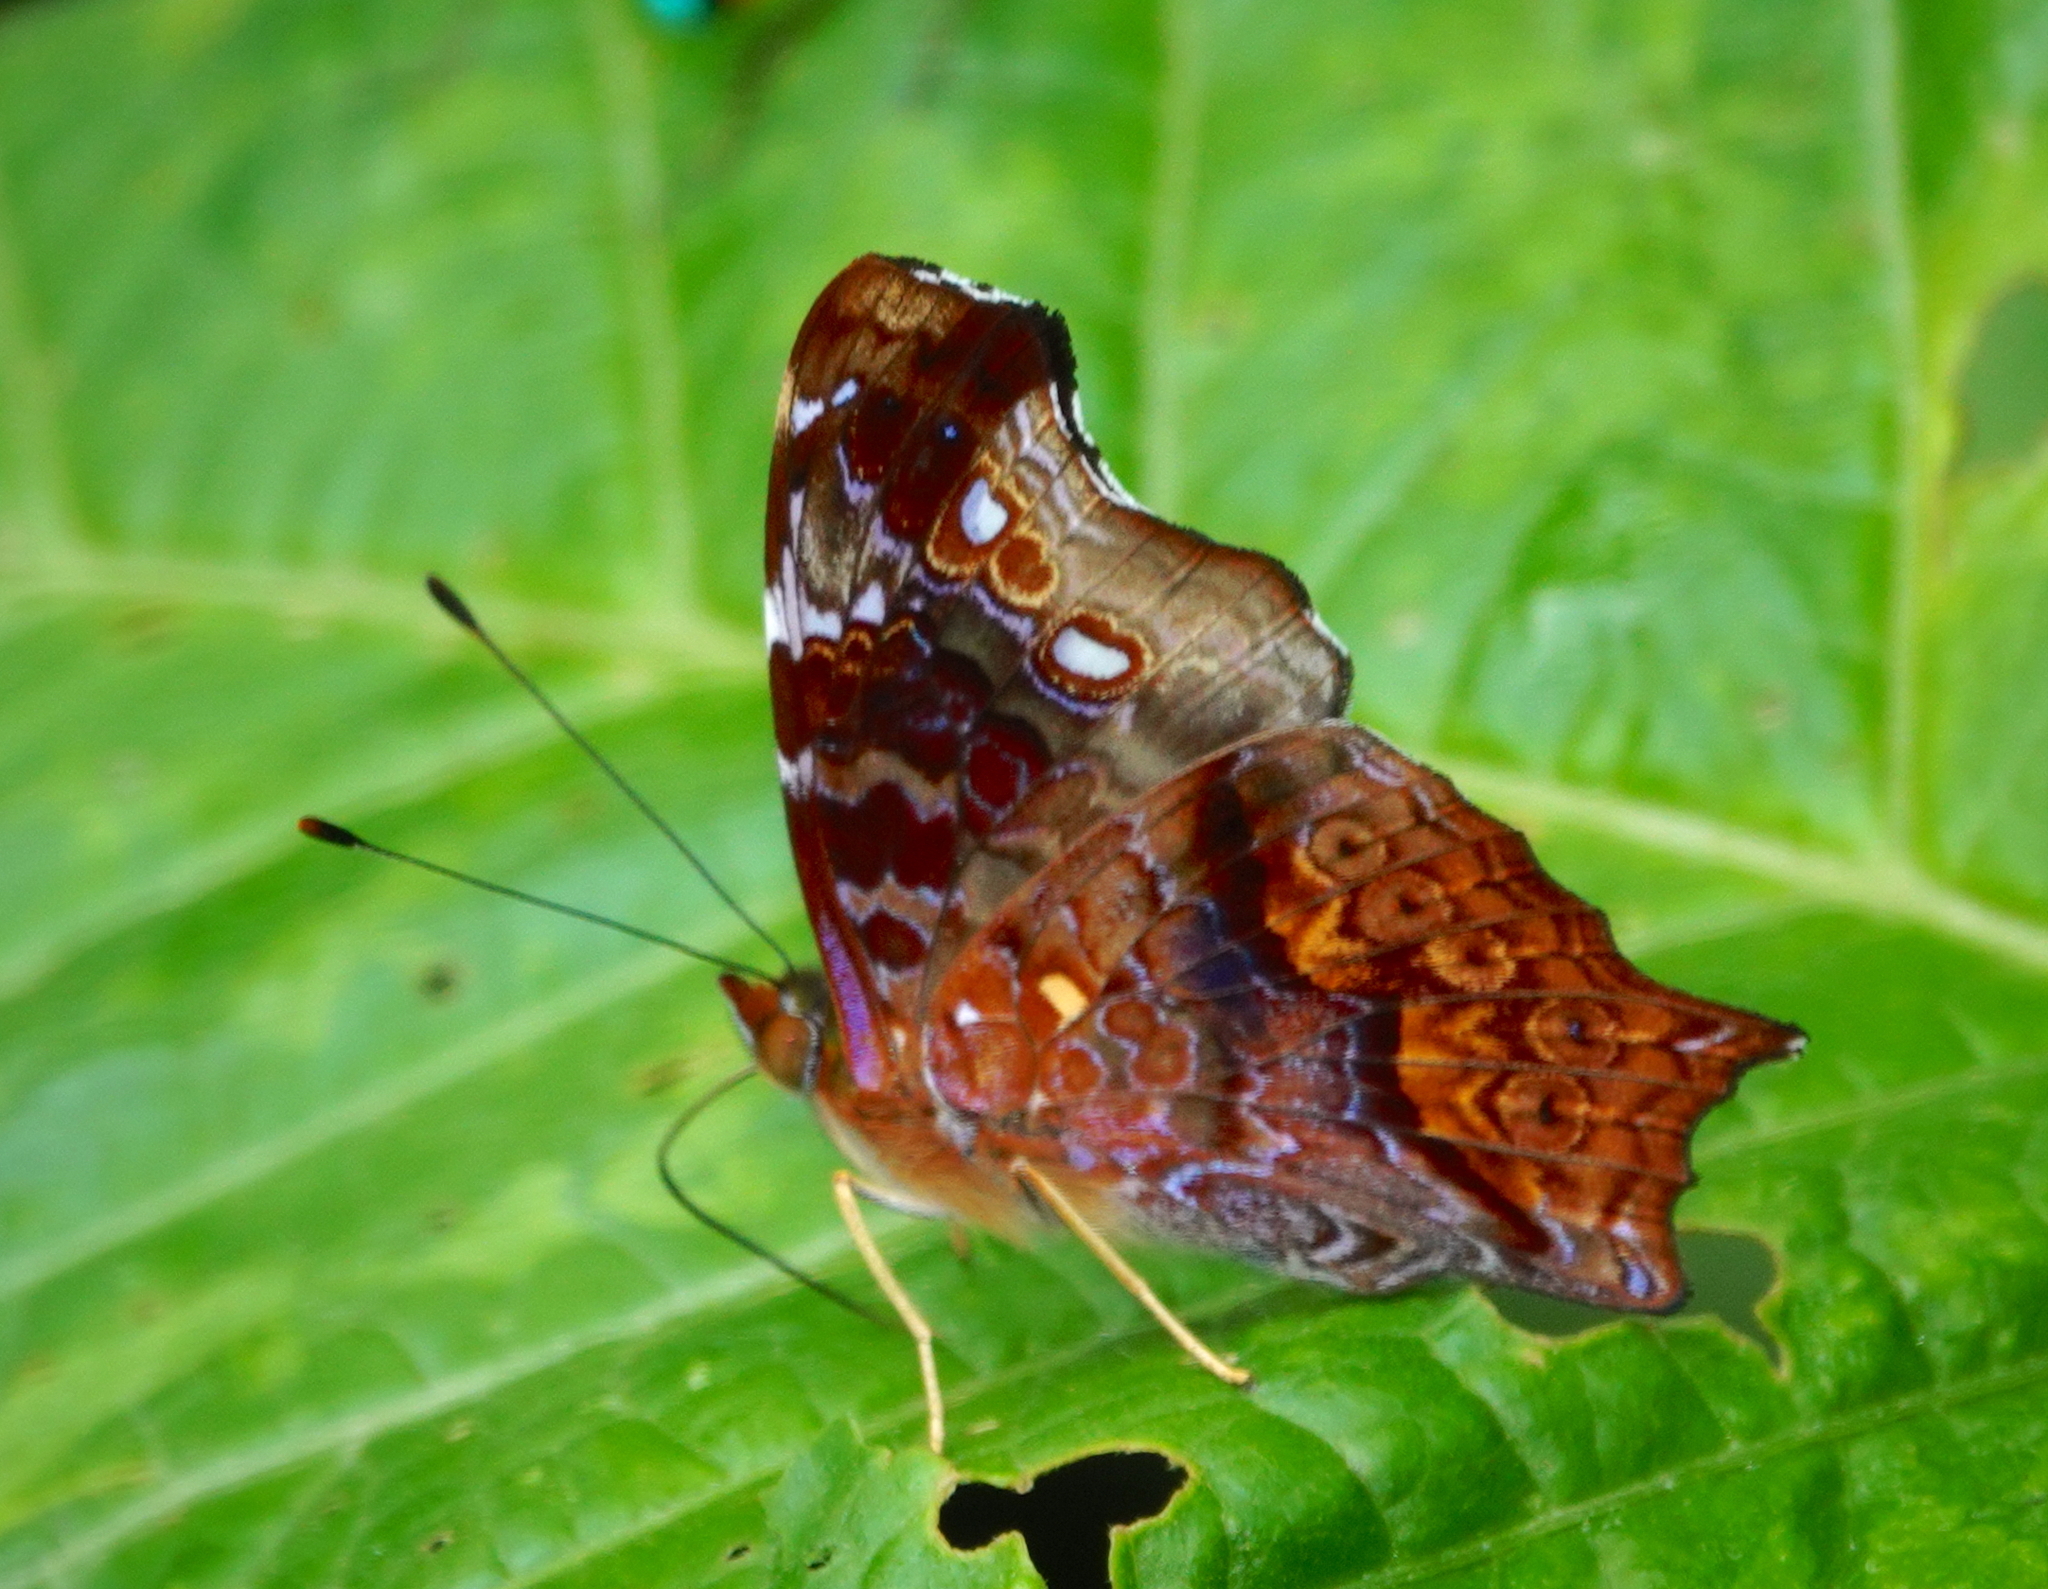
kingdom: Animalia
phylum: Arthropoda
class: Insecta
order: Lepidoptera
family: Nymphalidae
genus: Hypanartia
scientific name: Hypanartia kefersteini
